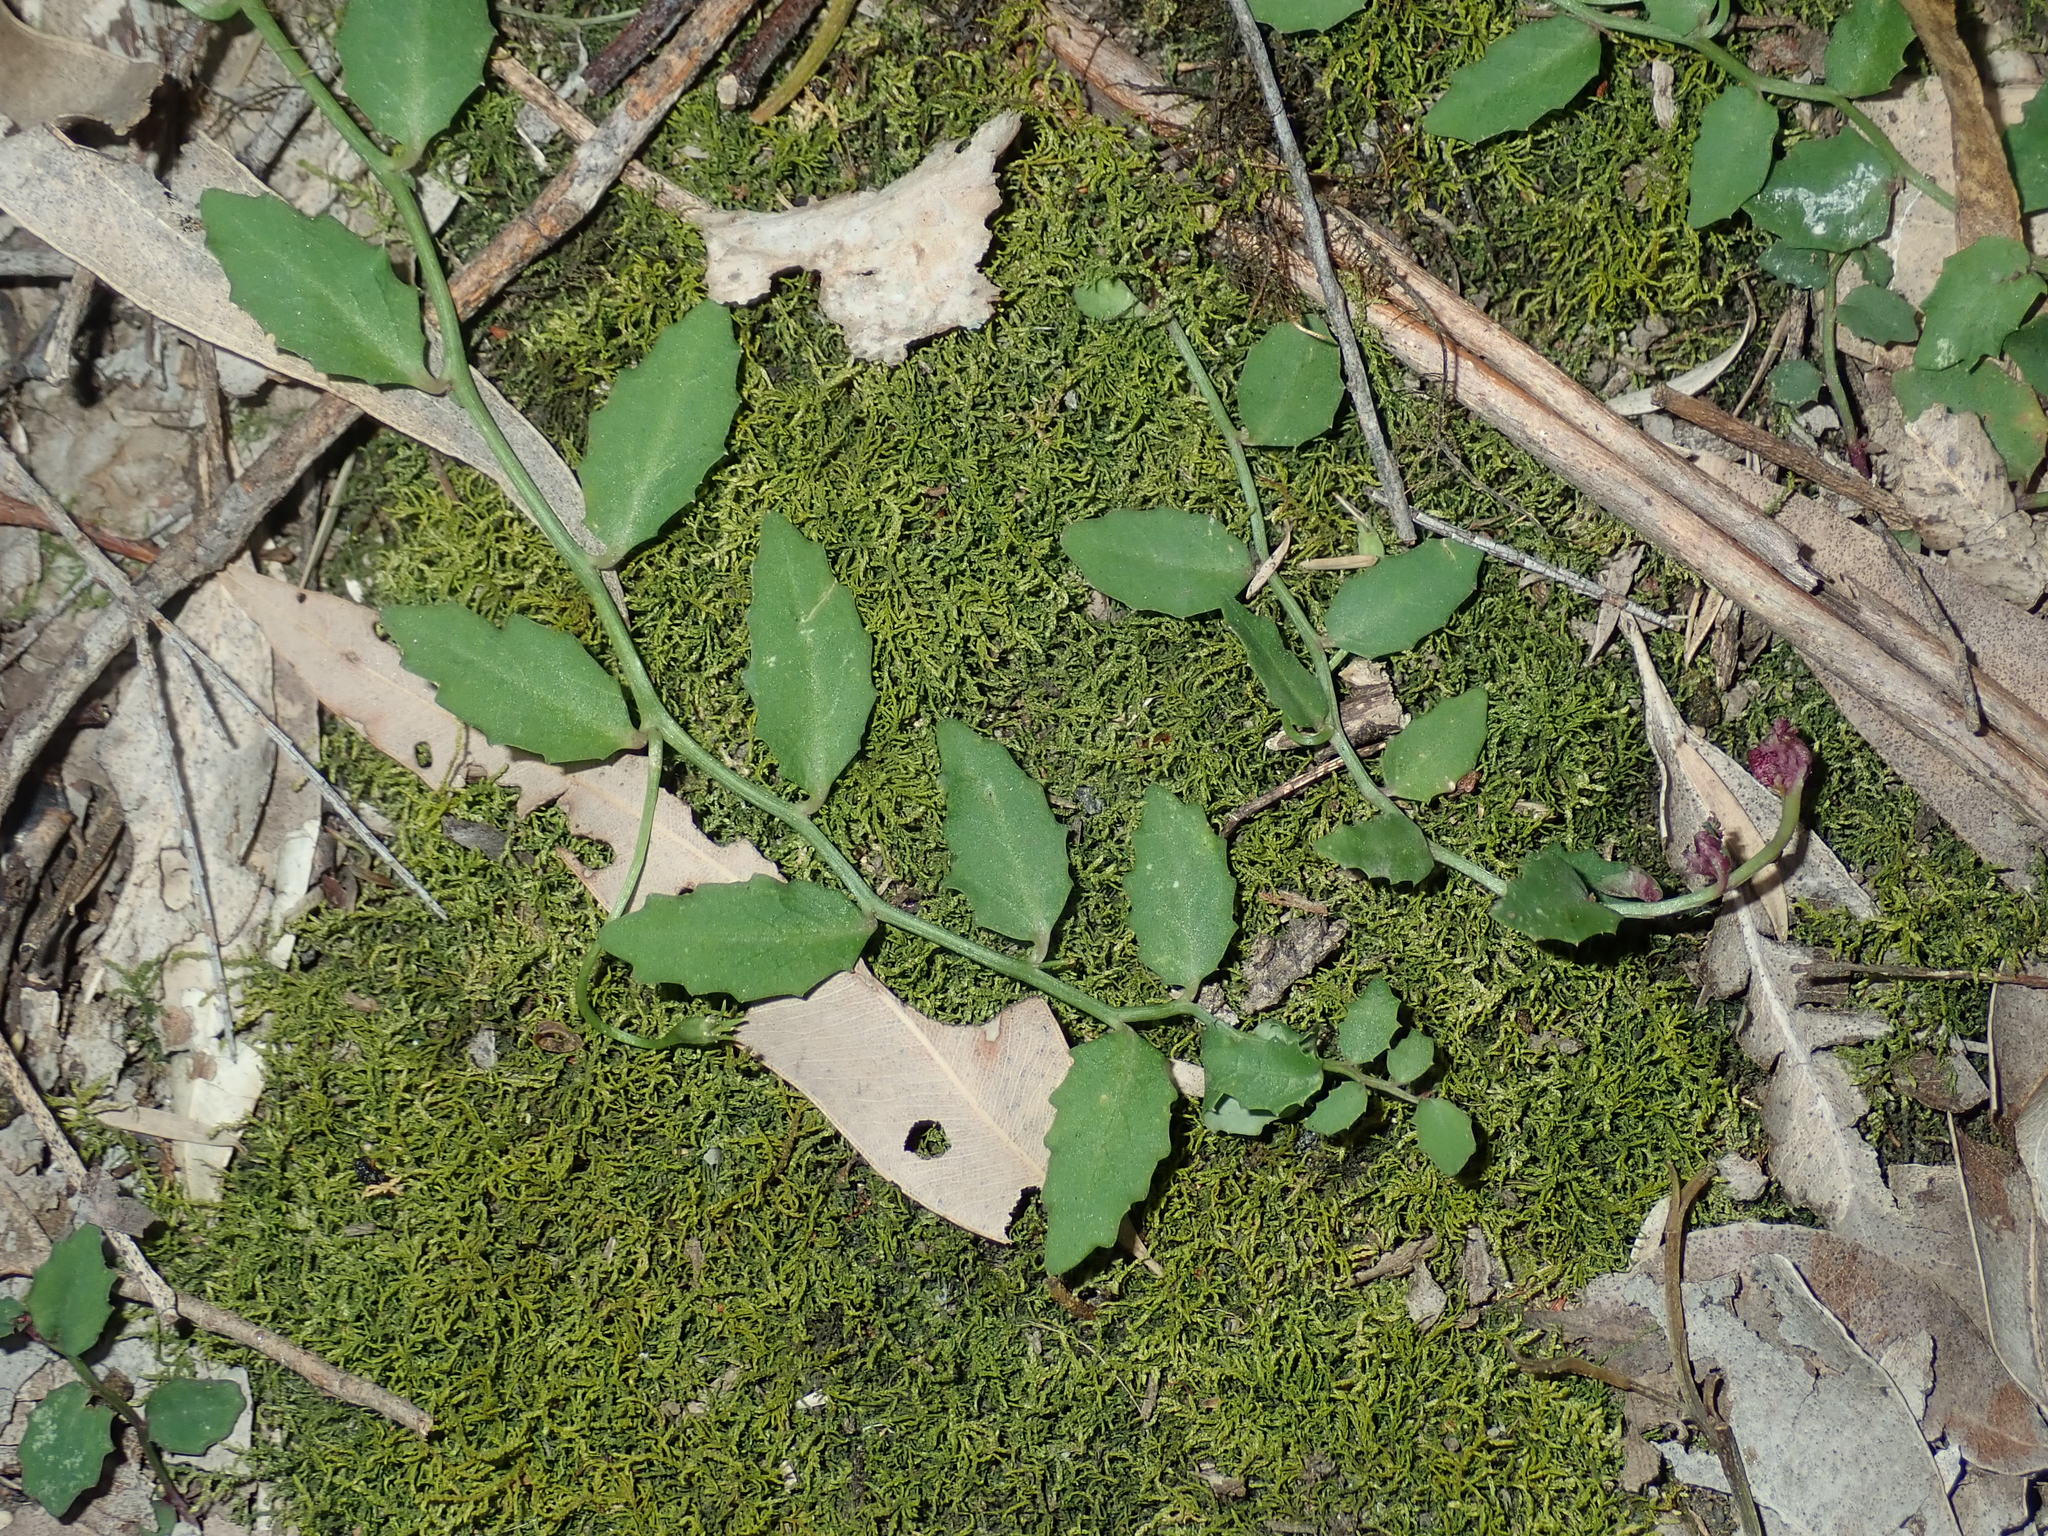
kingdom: Plantae
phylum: Tracheophyta
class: Magnoliopsida
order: Asterales
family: Campanulaceae
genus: Lobelia
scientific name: Lobelia purpurascens
